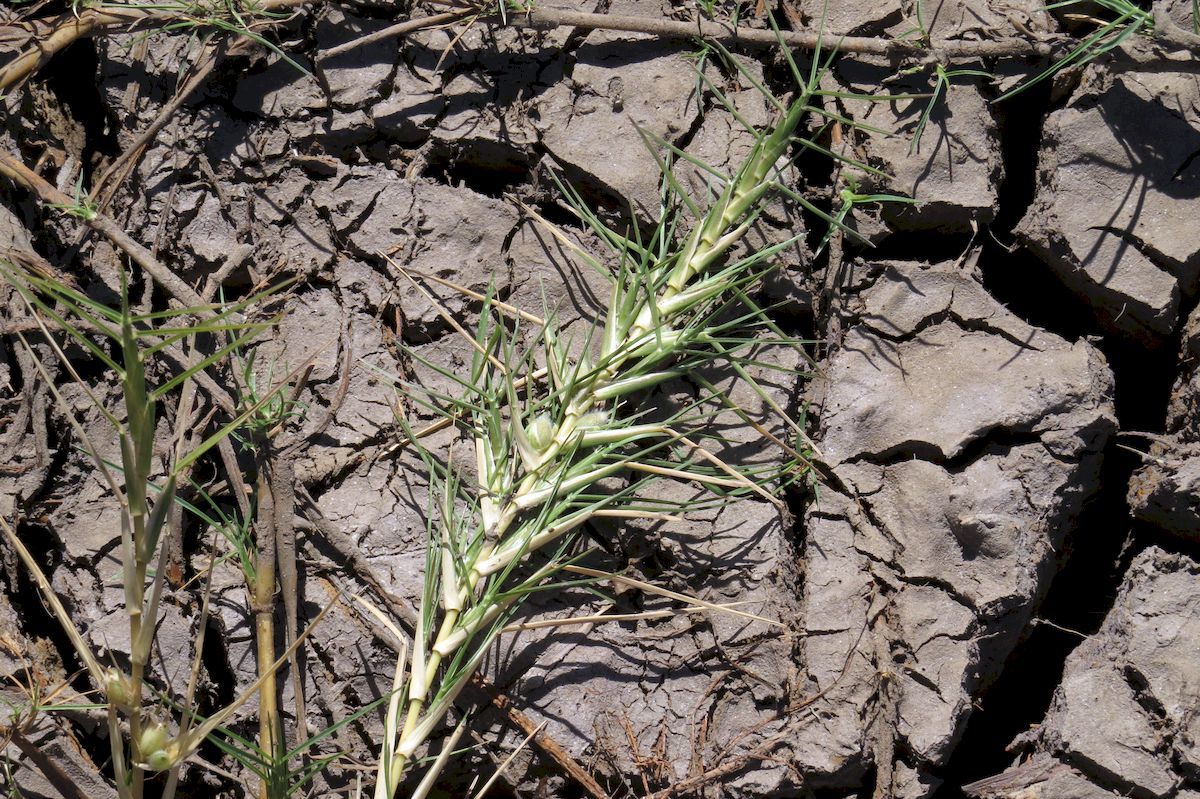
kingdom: Plantae
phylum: Tracheophyta
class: Liliopsida
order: Poales
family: Poaceae
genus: Pseudoraphis
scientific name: Pseudoraphis spinescens
